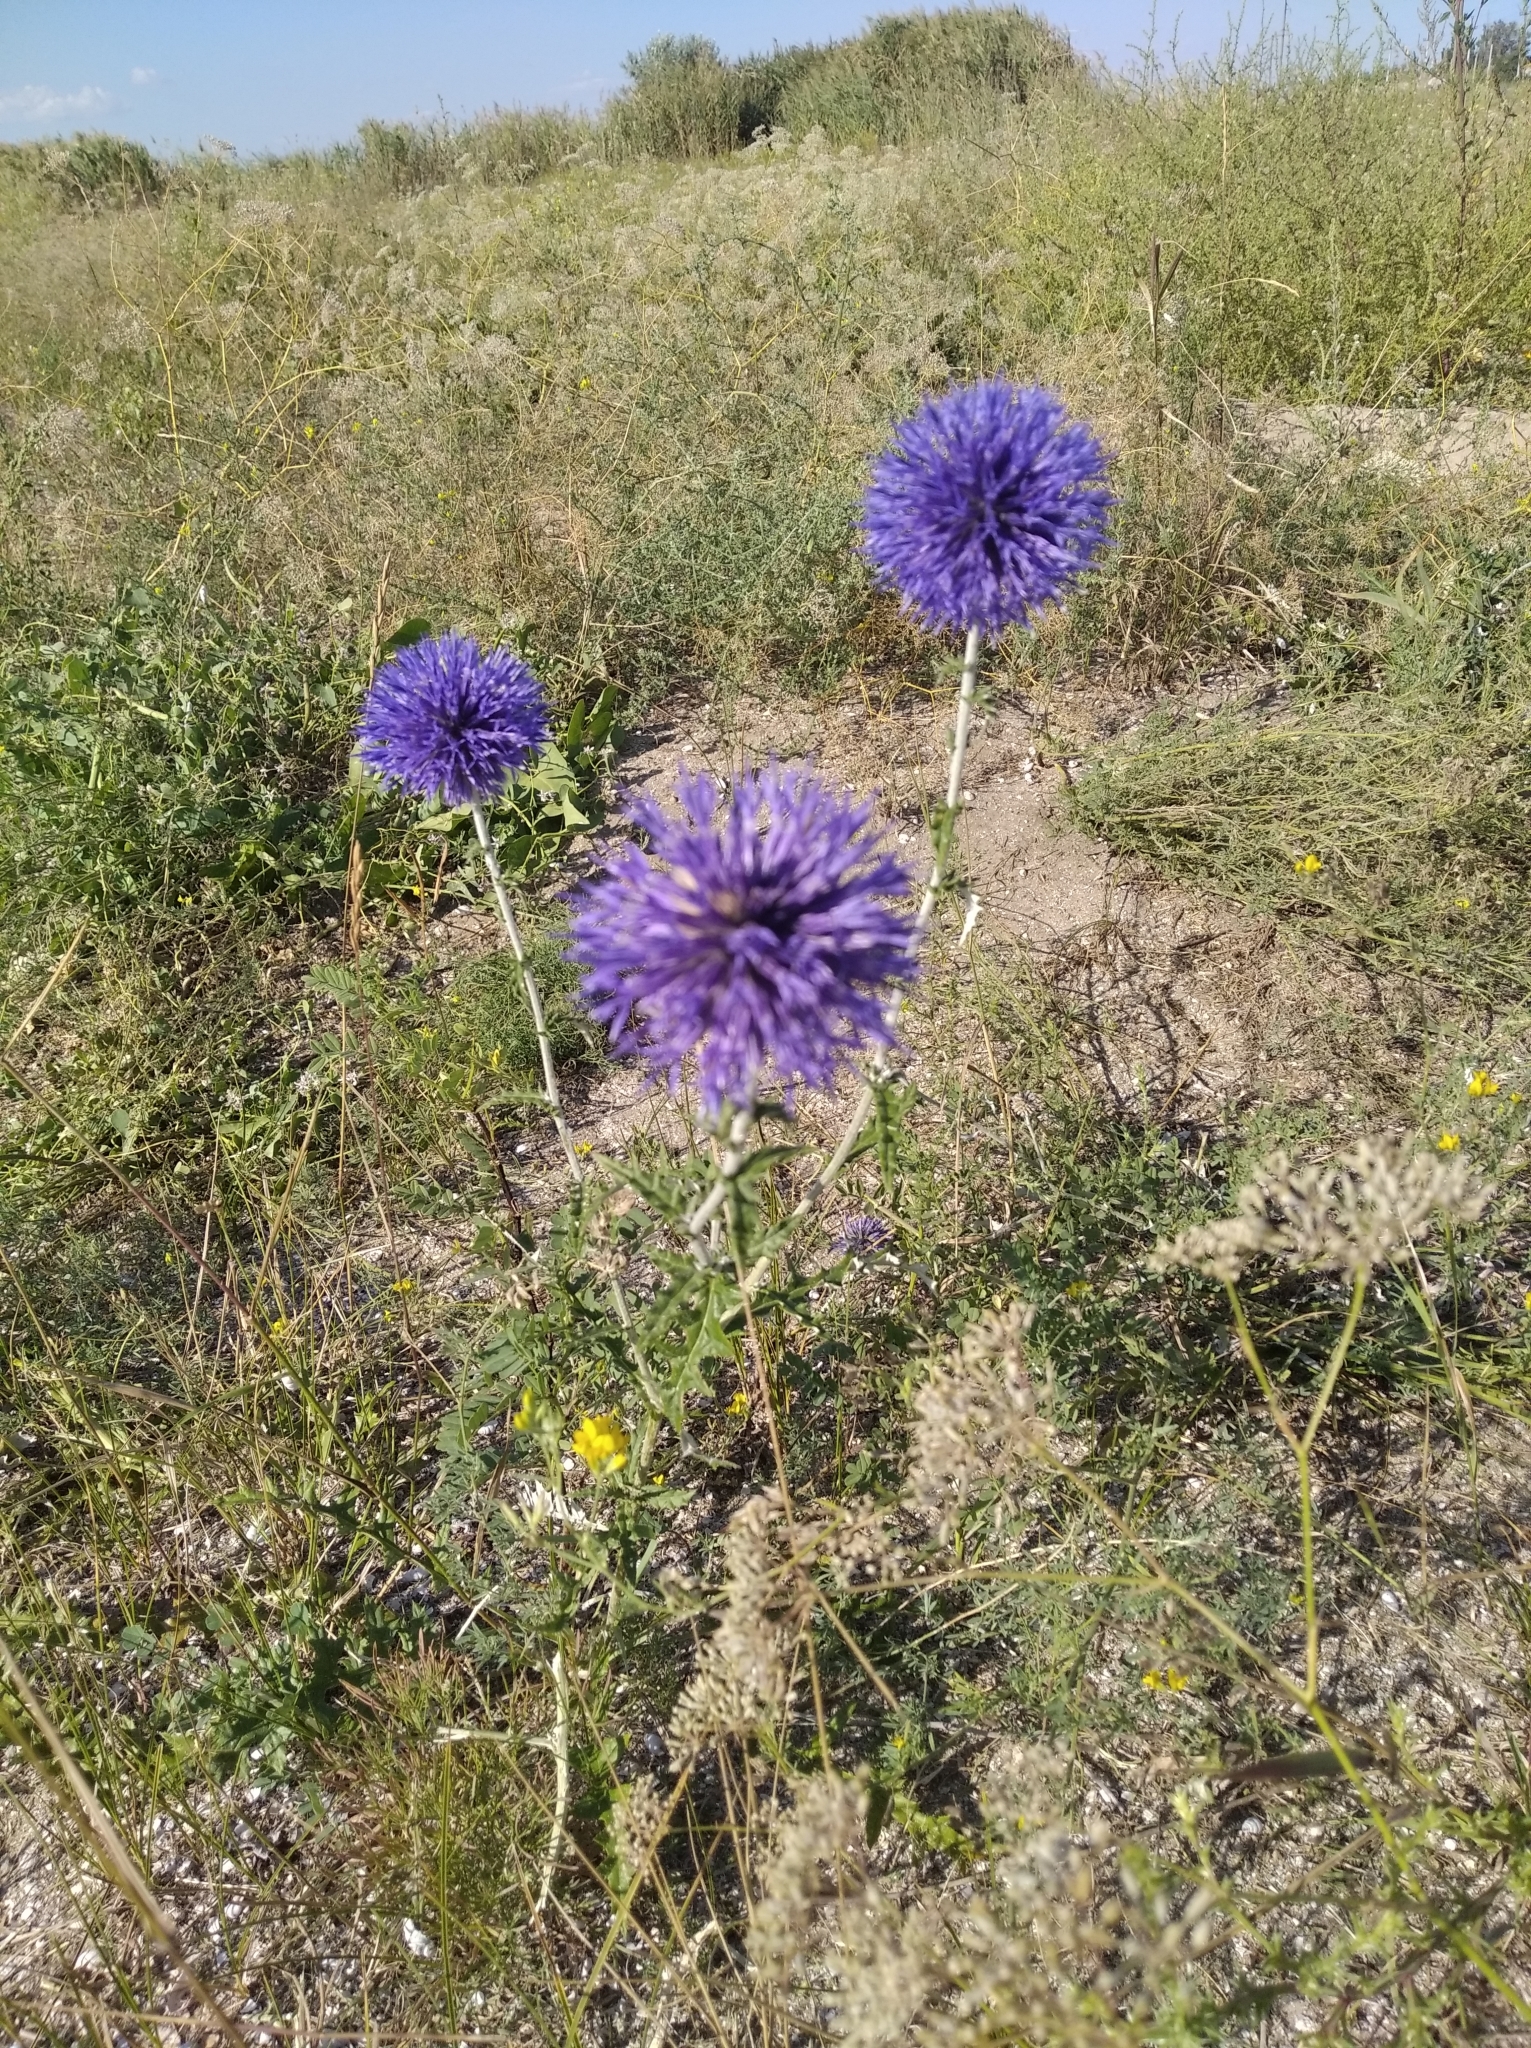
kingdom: Plantae
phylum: Tracheophyta
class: Magnoliopsida
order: Asterales
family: Asteraceae
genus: Echinops
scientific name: Echinops ritro
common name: Globe thistle
